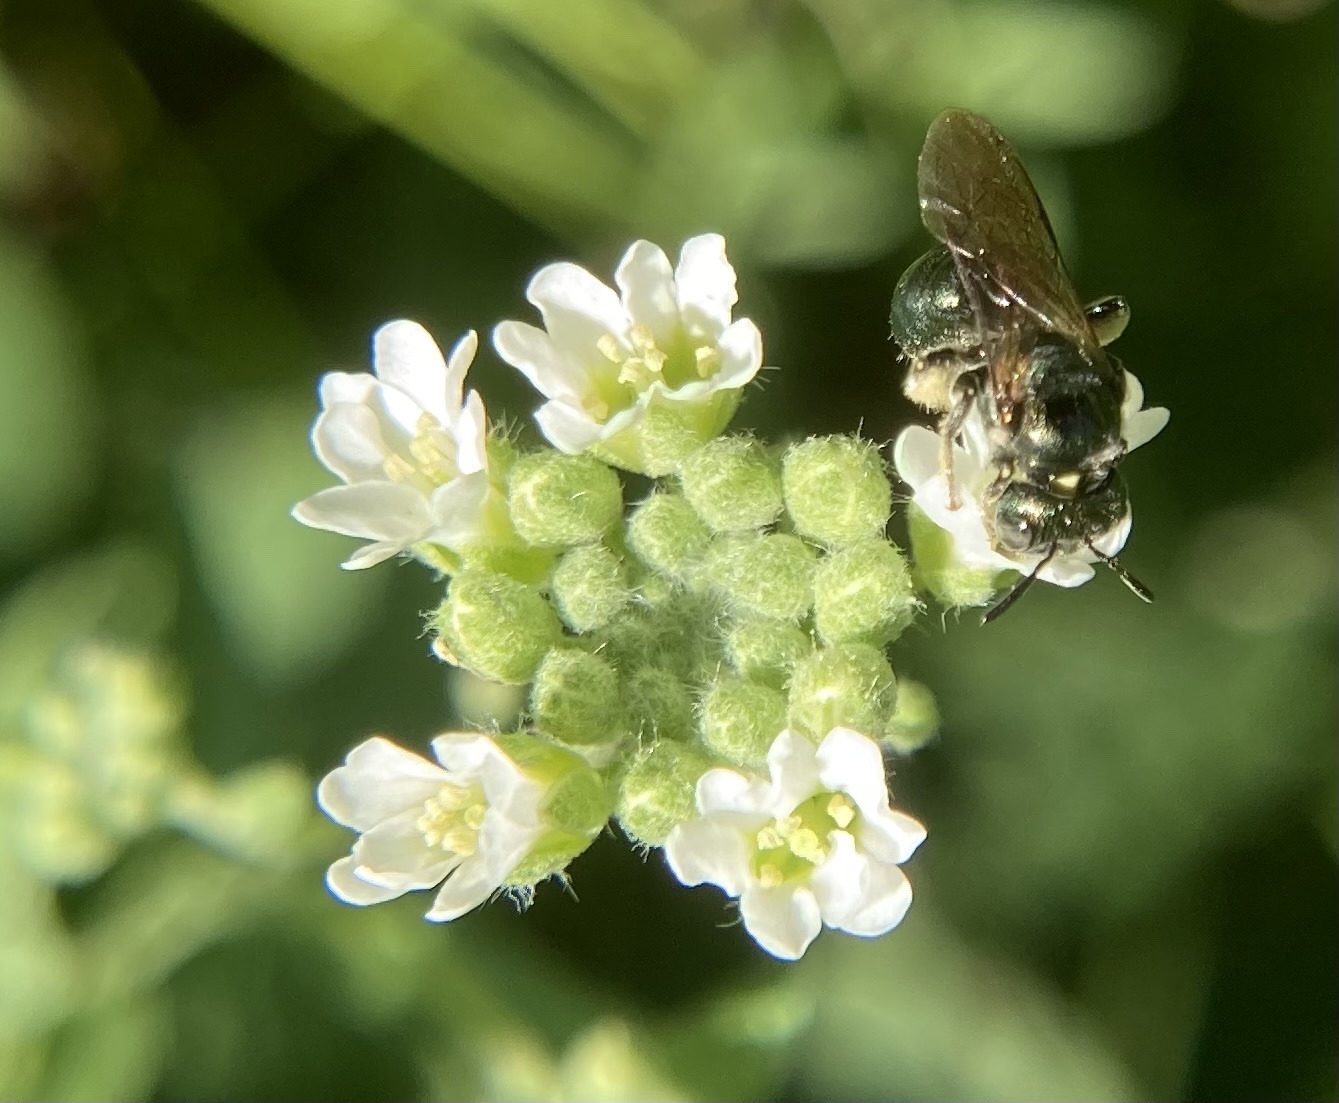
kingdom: Animalia
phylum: Arthropoda
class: Insecta
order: Hymenoptera
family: Apidae
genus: Zadontomerus
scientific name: Zadontomerus
